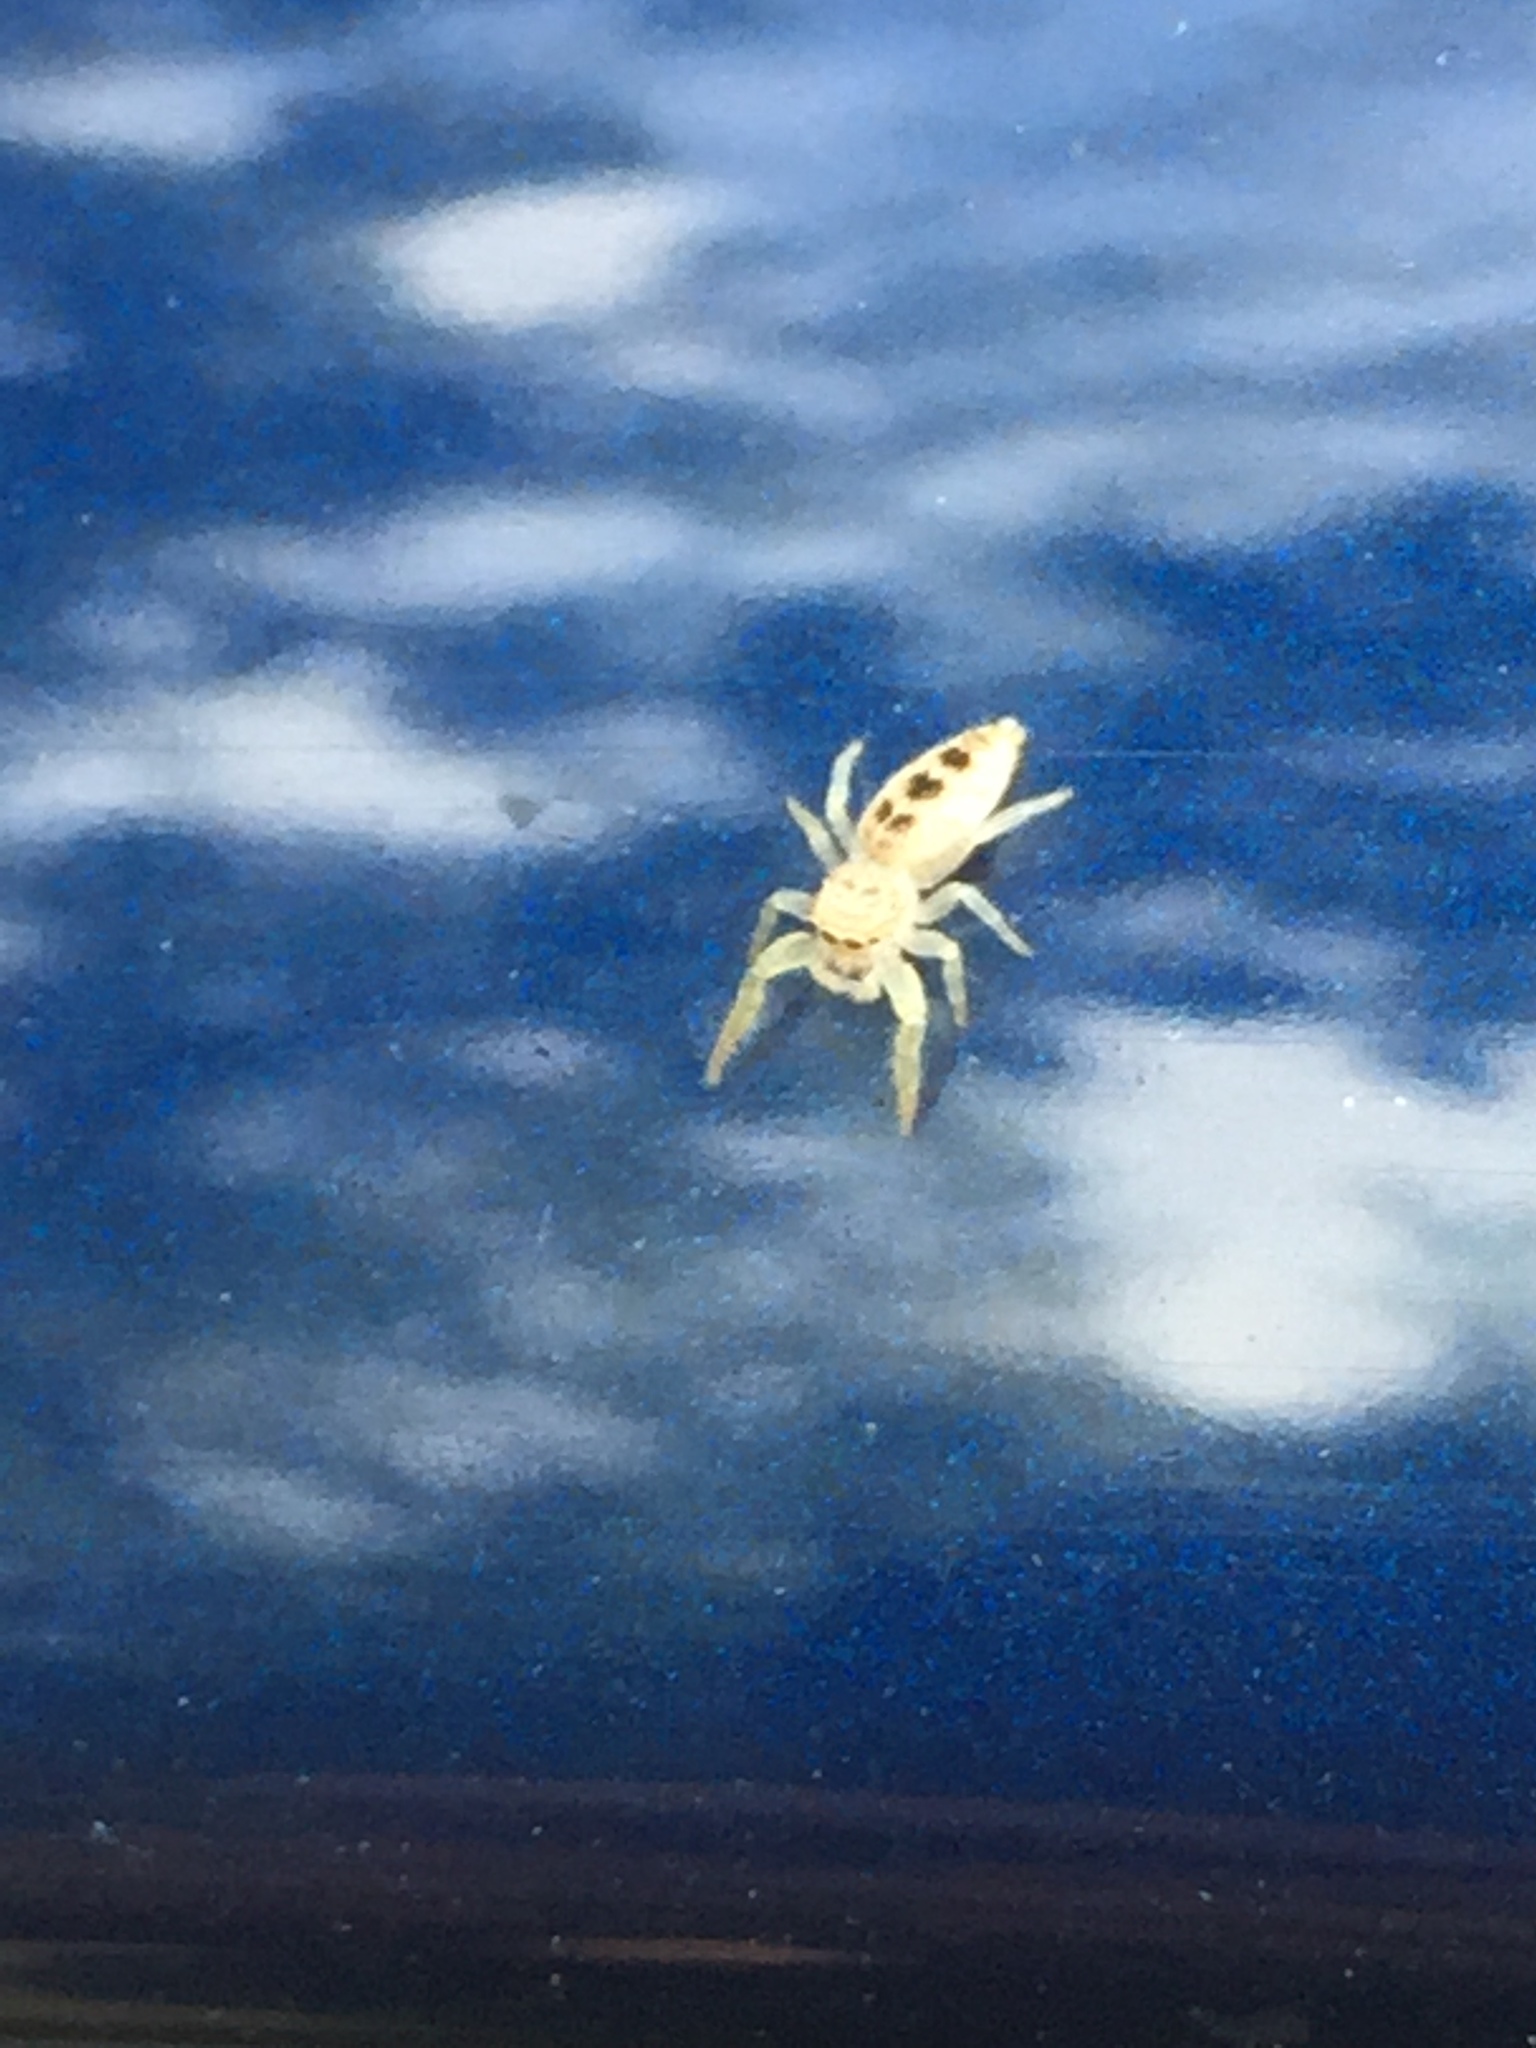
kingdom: Animalia
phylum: Arthropoda
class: Arachnida
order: Araneae
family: Salticidae
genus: Hentzia
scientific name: Hentzia mitrata
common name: White-jawed jumping spider
